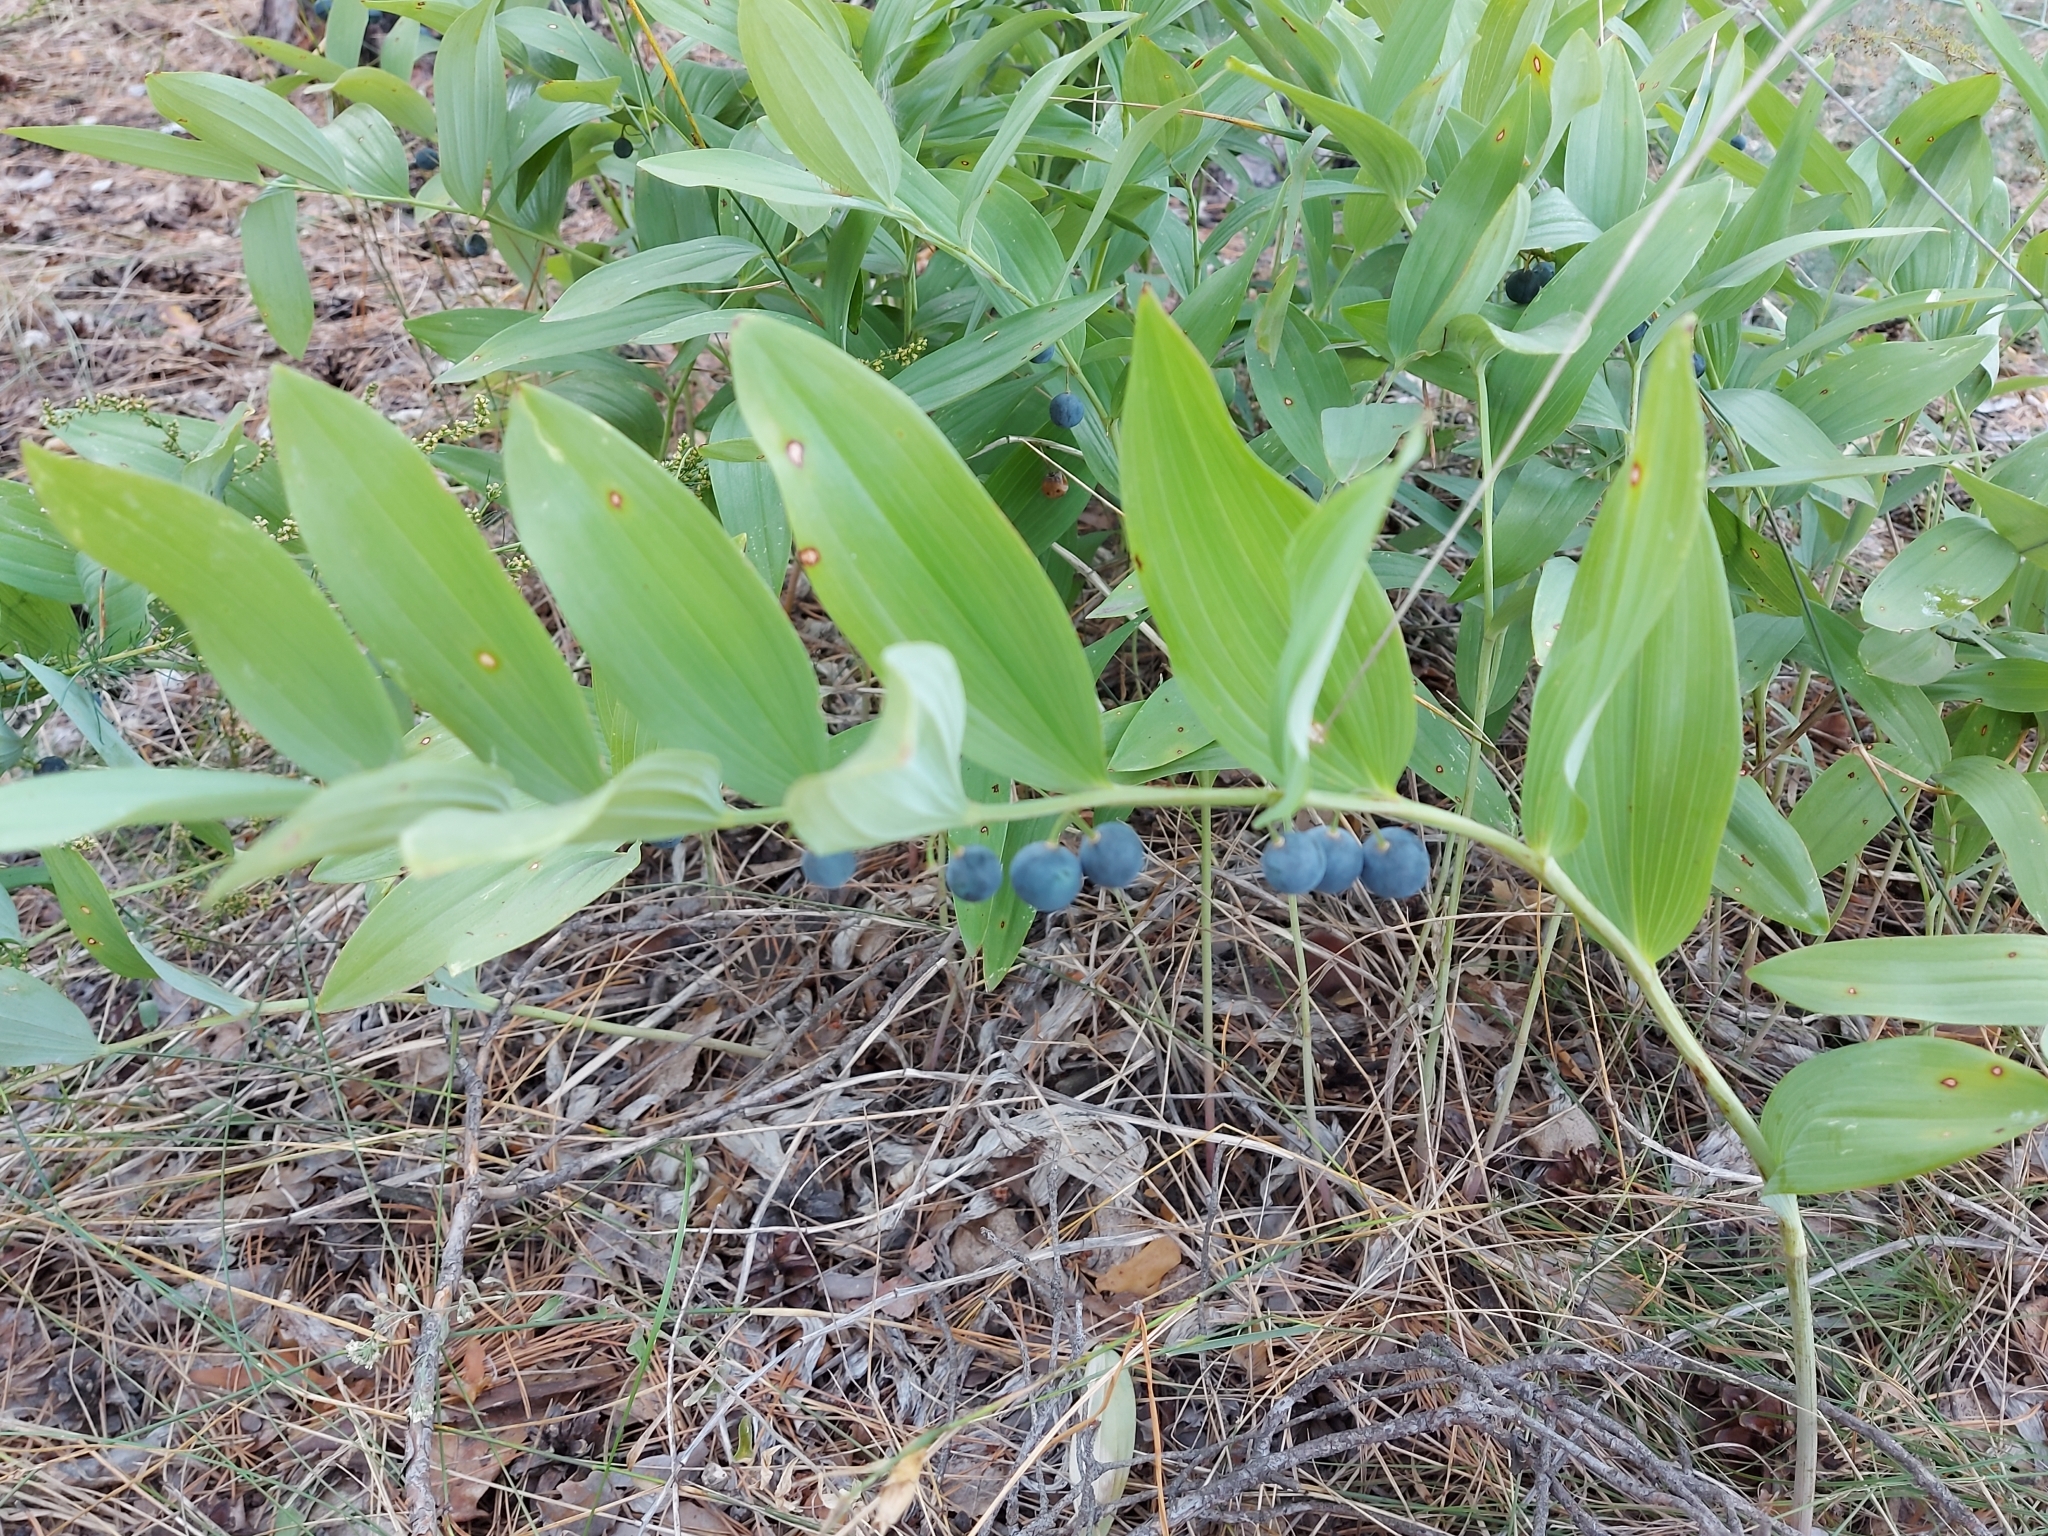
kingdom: Plantae
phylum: Tracheophyta
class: Liliopsida
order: Asparagales
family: Asparagaceae
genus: Polygonatum
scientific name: Polygonatum odoratum
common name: Angular solomon's-seal
